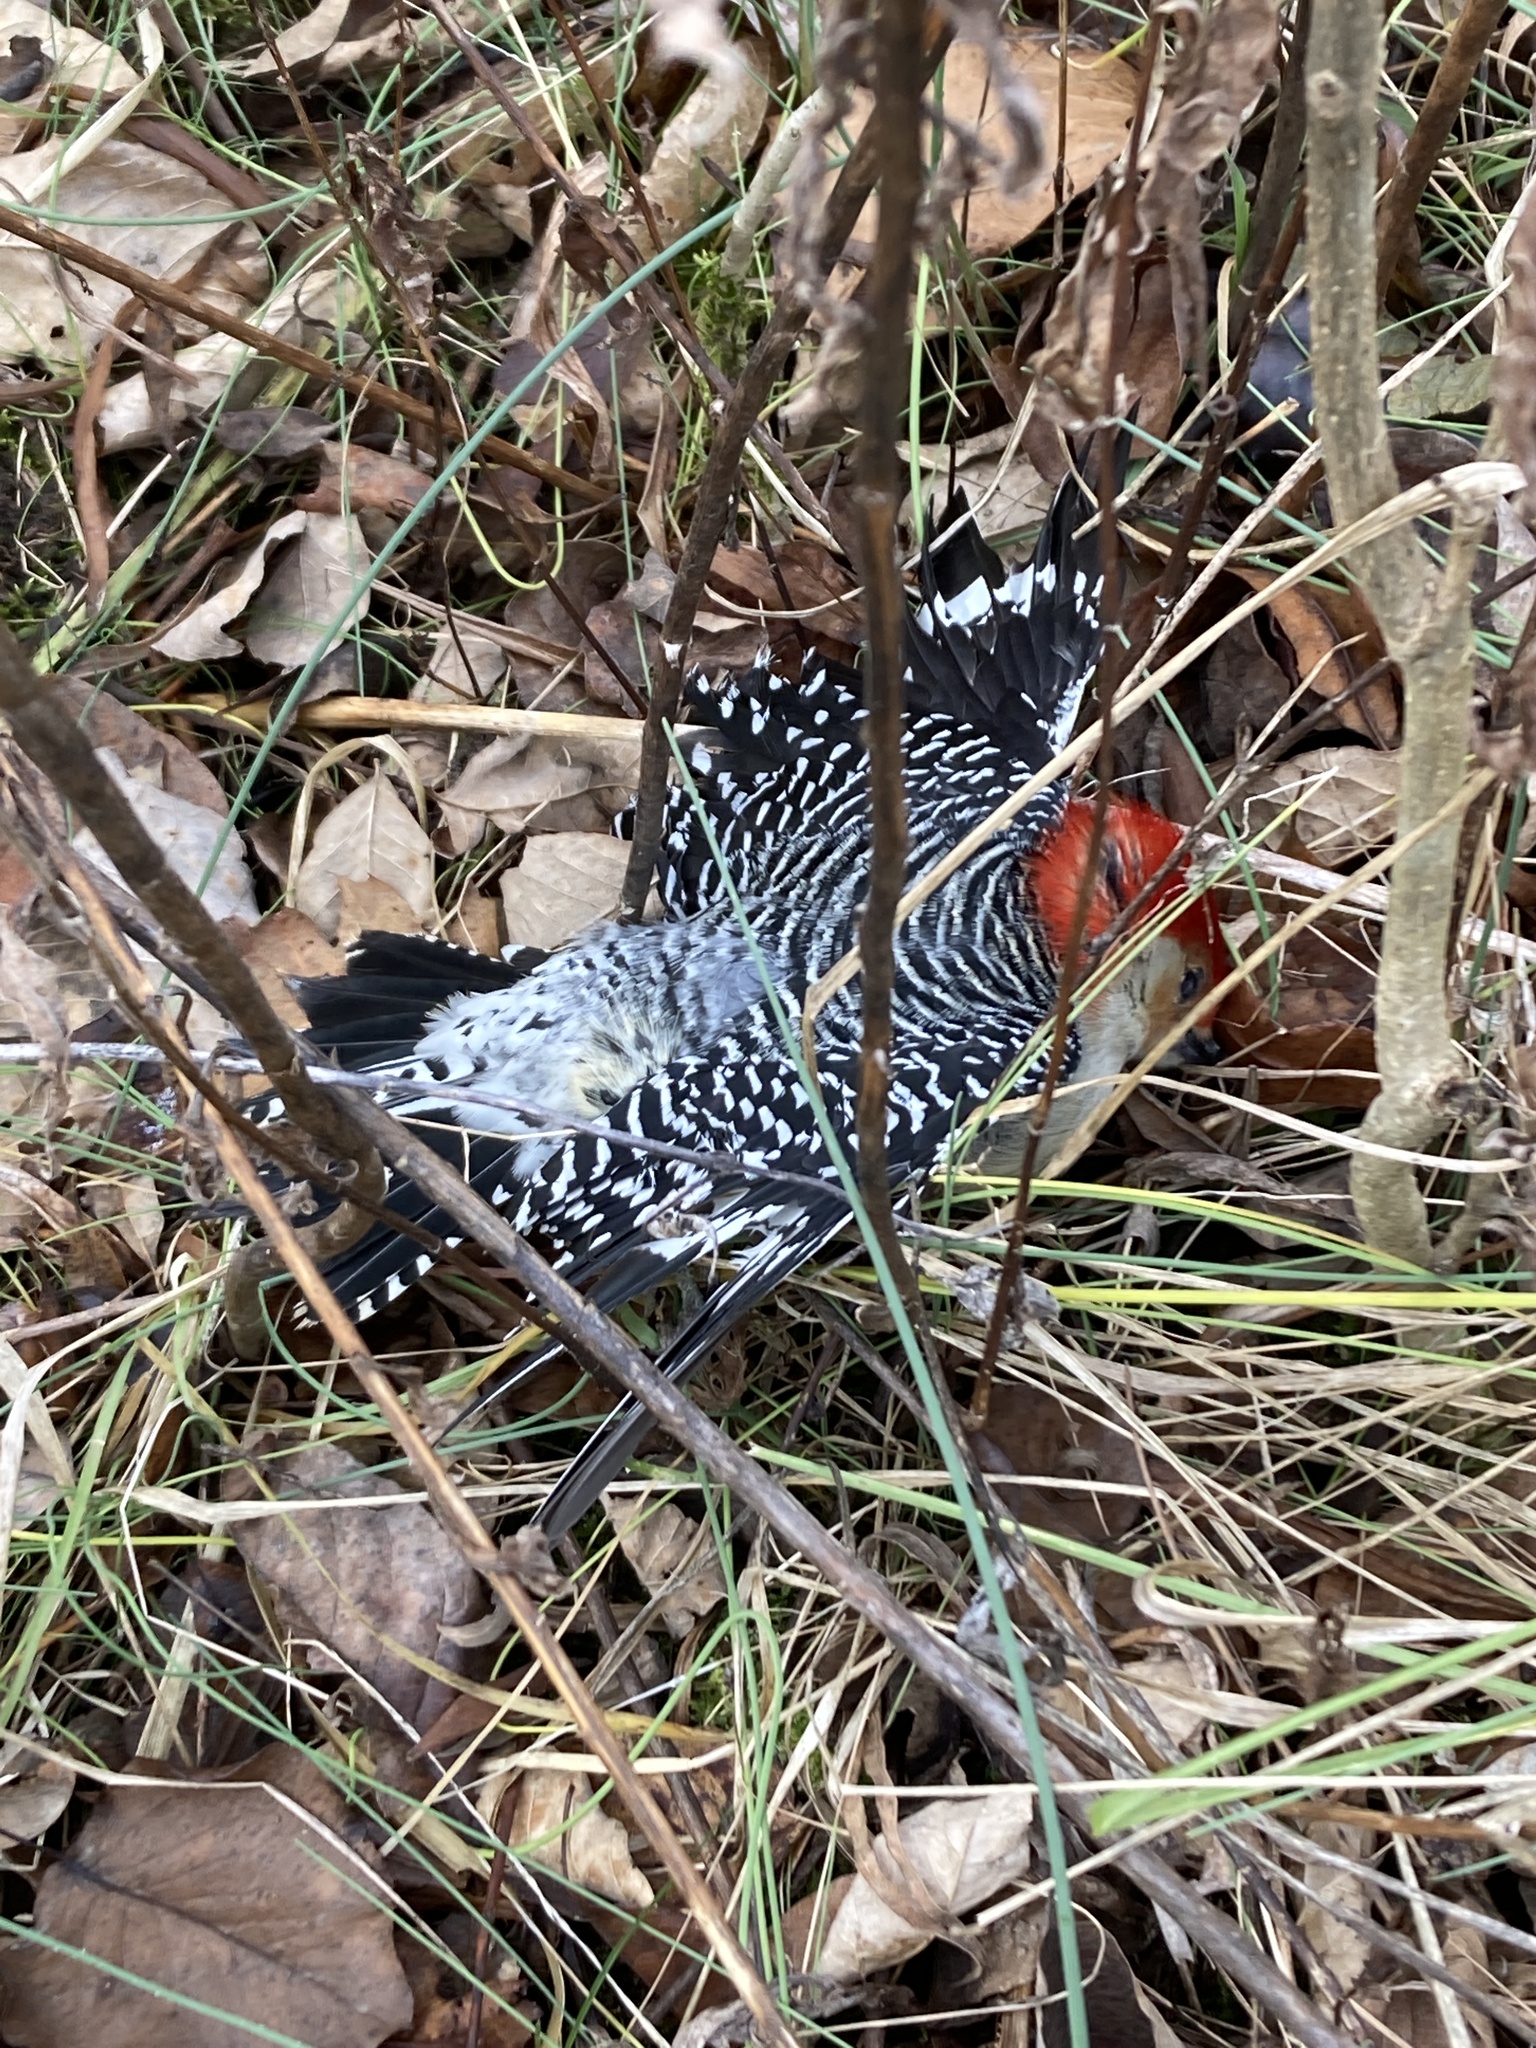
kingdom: Animalia
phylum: Chordata
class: Aves
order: Piciformes
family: Picidae
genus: Melanerpes
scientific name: Melanerpes carolinus
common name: Red-bellied woodpecker
